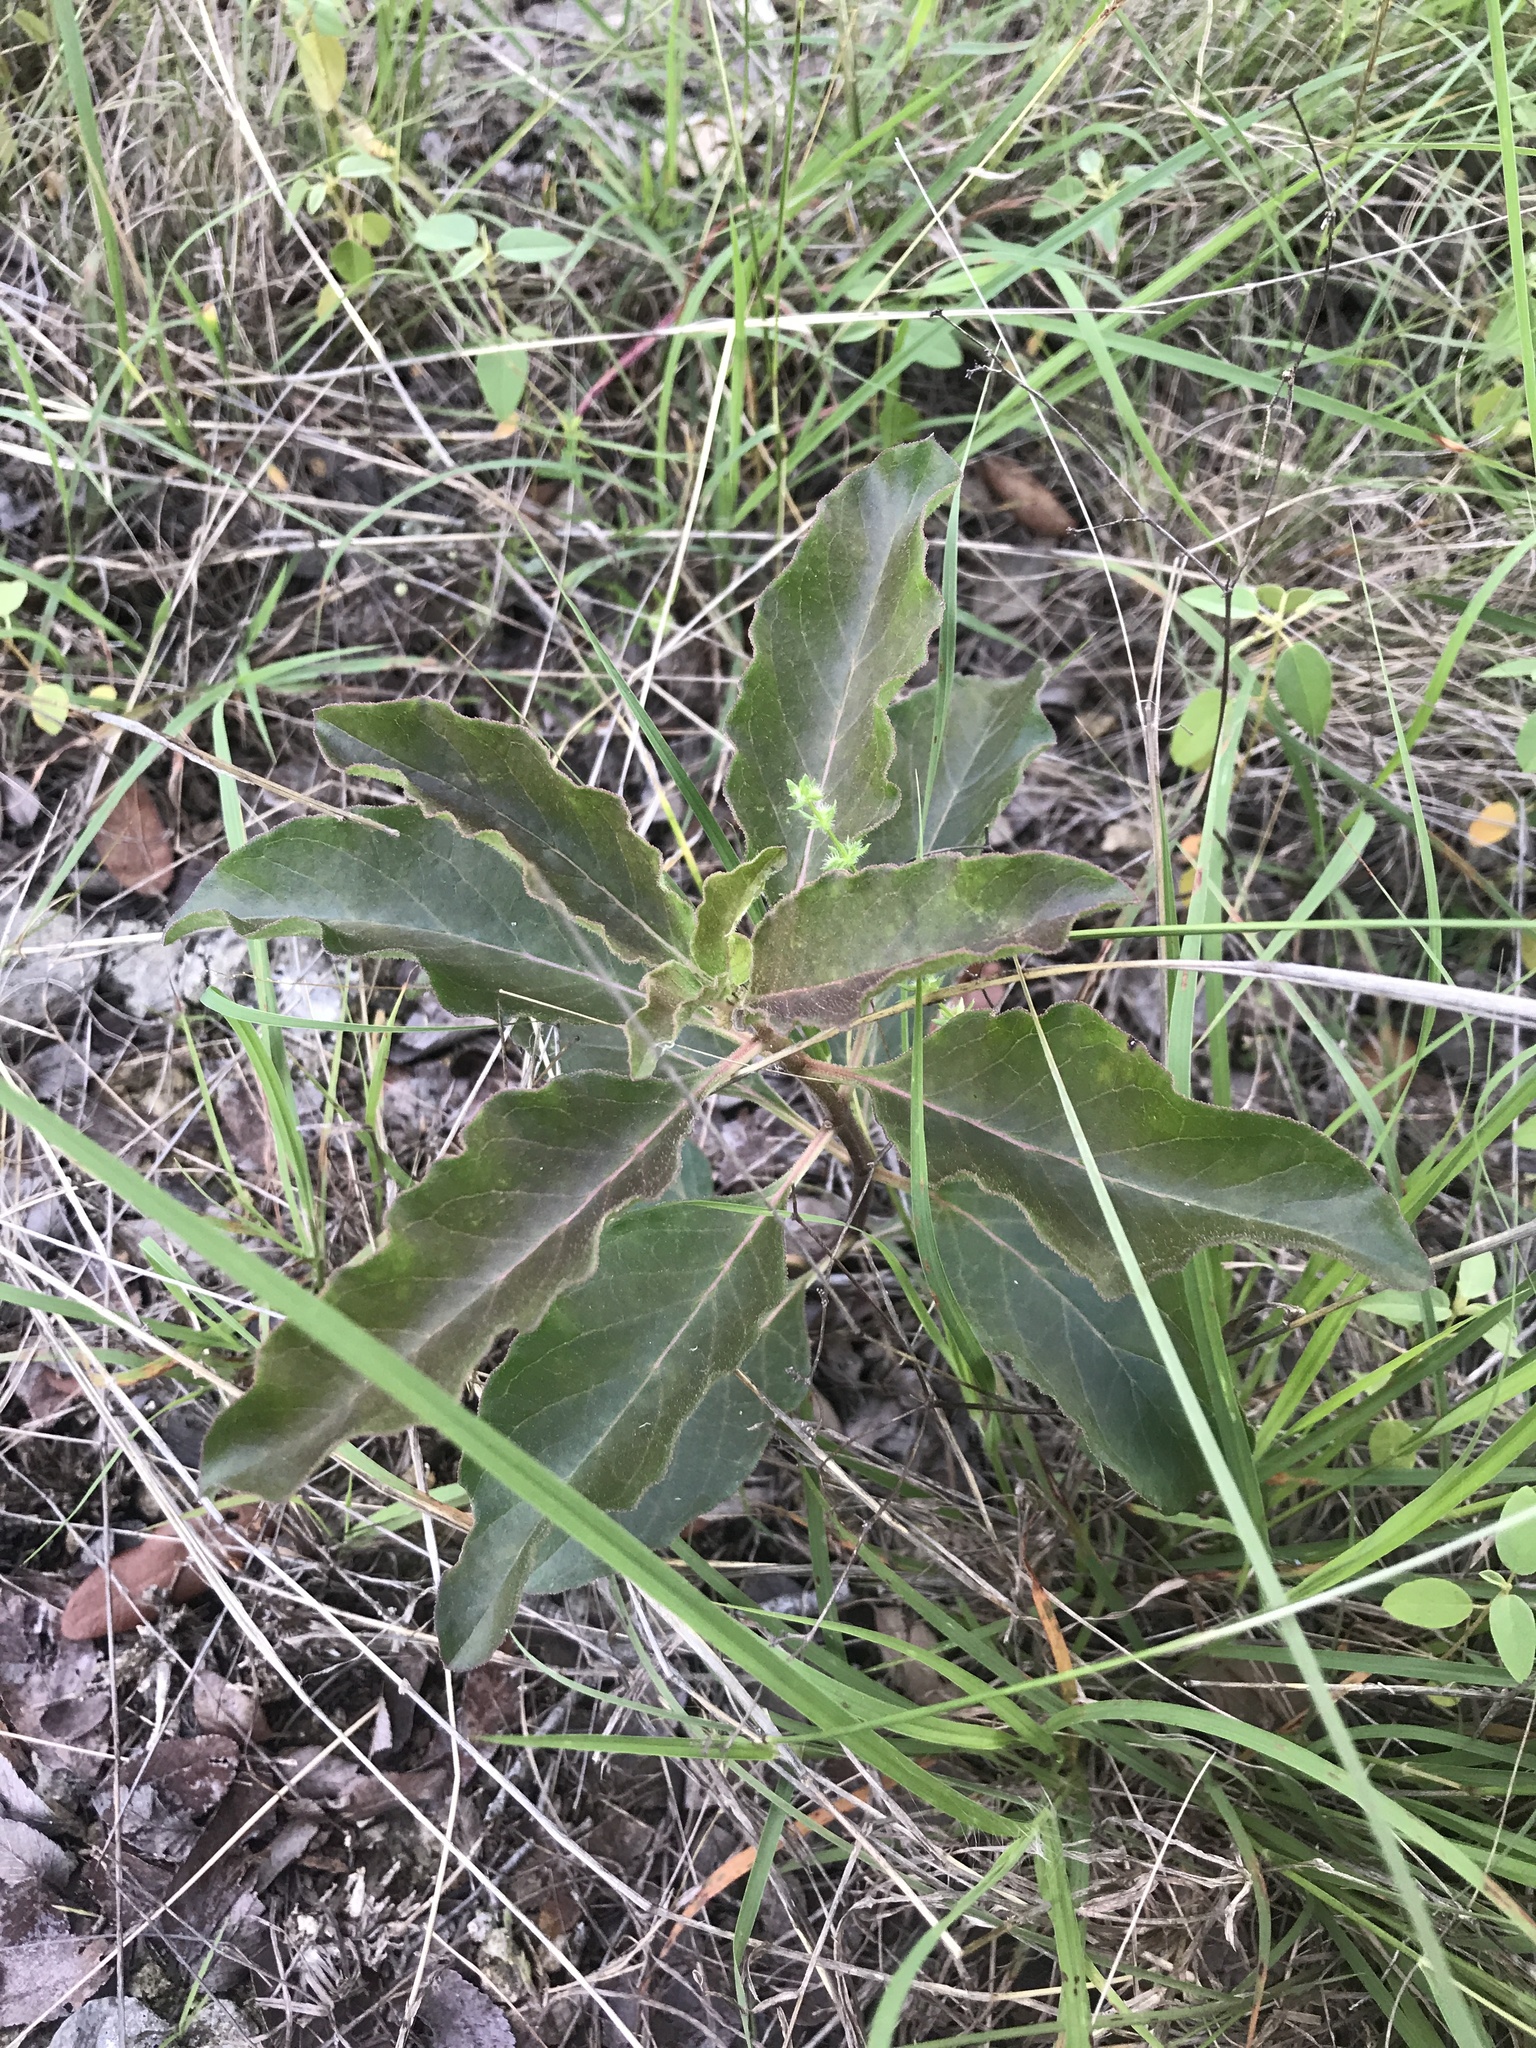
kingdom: Plantae
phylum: Tracheophyta
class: Magnoliopsida
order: Gentianales
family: Apocynaceae
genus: Asclepias
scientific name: Asclepias oenotheroides
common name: Zizotes milkweed
